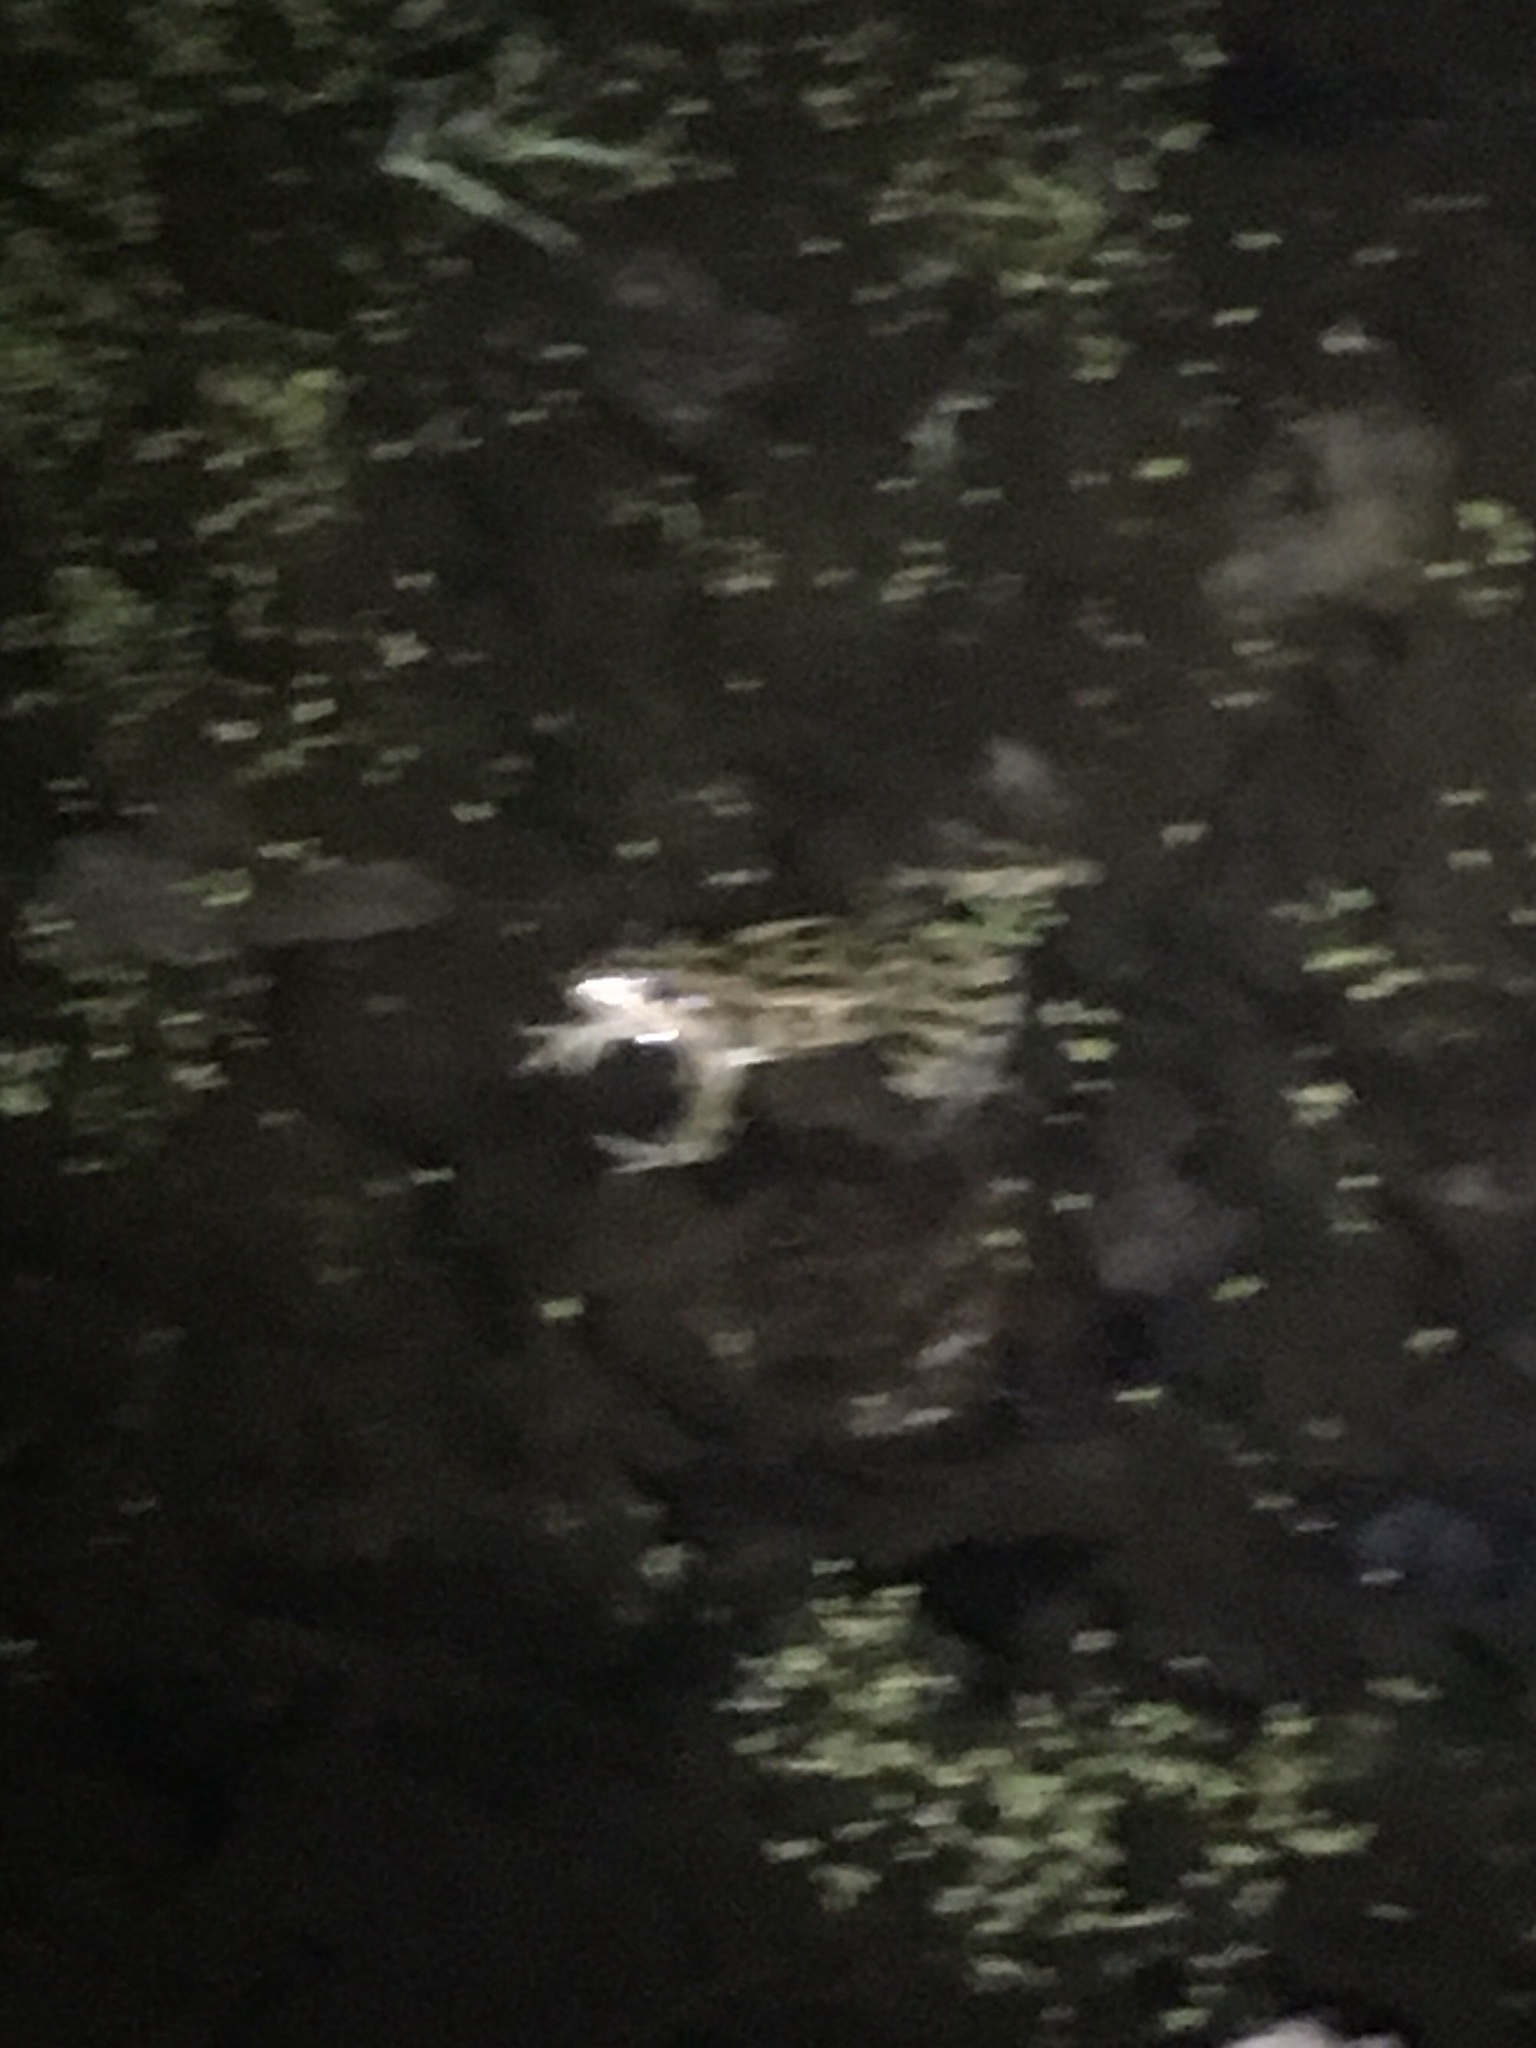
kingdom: Animalia
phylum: Chordata
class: Amphibia
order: Anura
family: Ranidae
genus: Lithobates
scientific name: Lithobates pipiens
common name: Northern leopard frog
